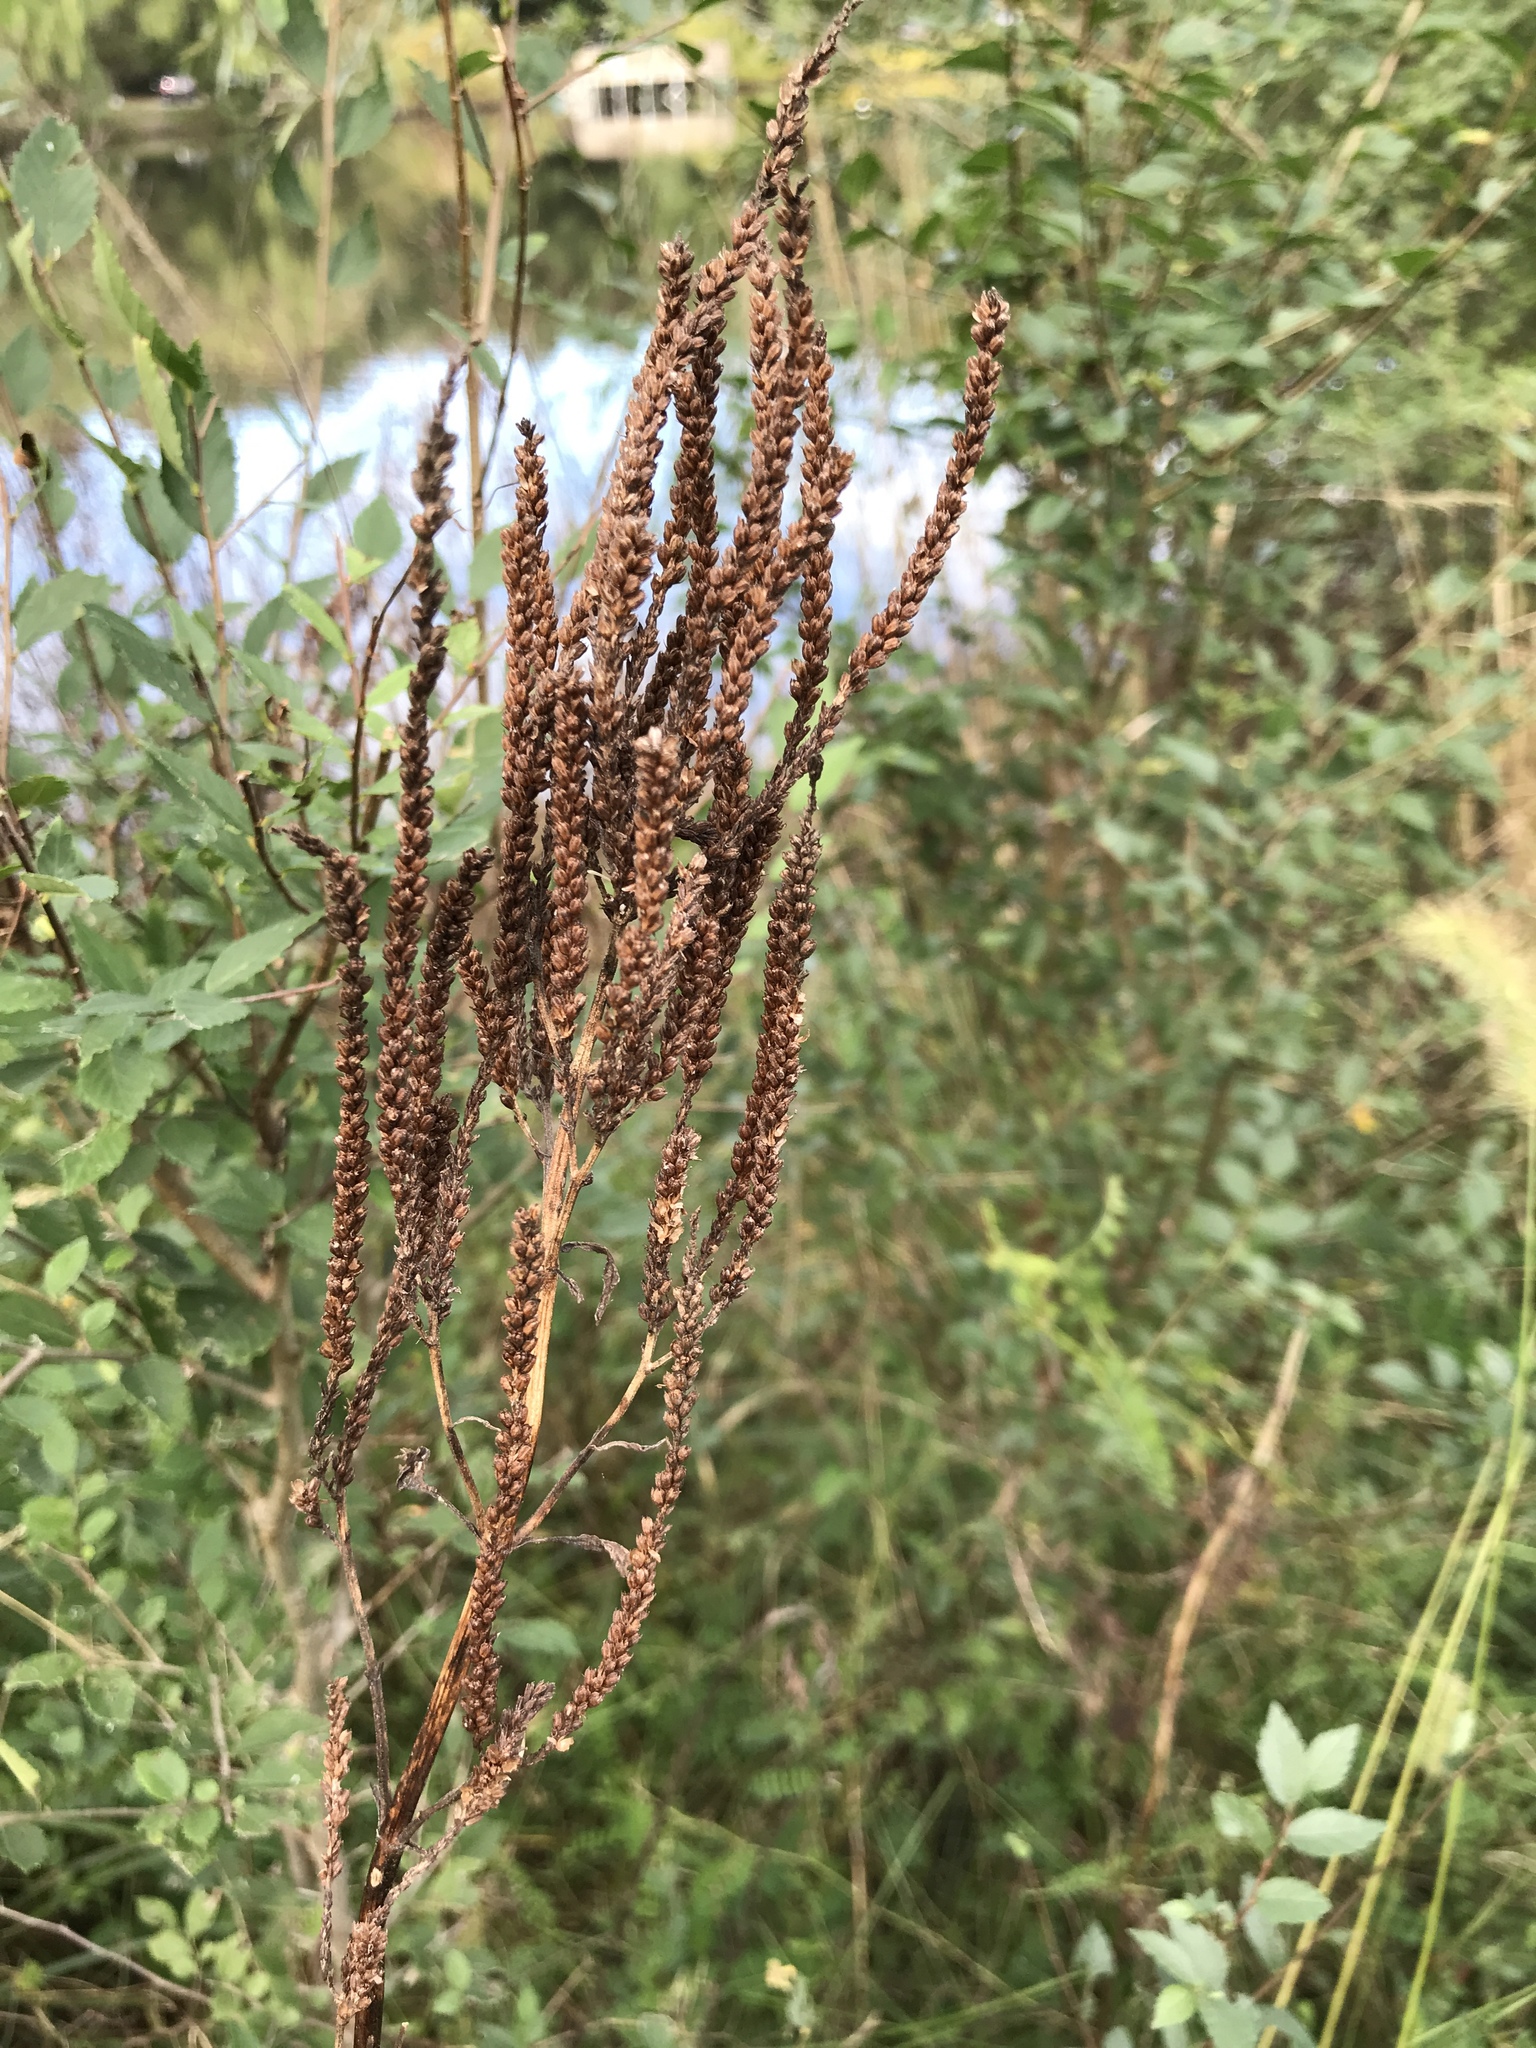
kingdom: Plantae
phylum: Tracheophyta
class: Magnoliopsida
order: Lamiales
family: Verbenaceae
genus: Verbena
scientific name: Verbena hastata
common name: American blue vervain
